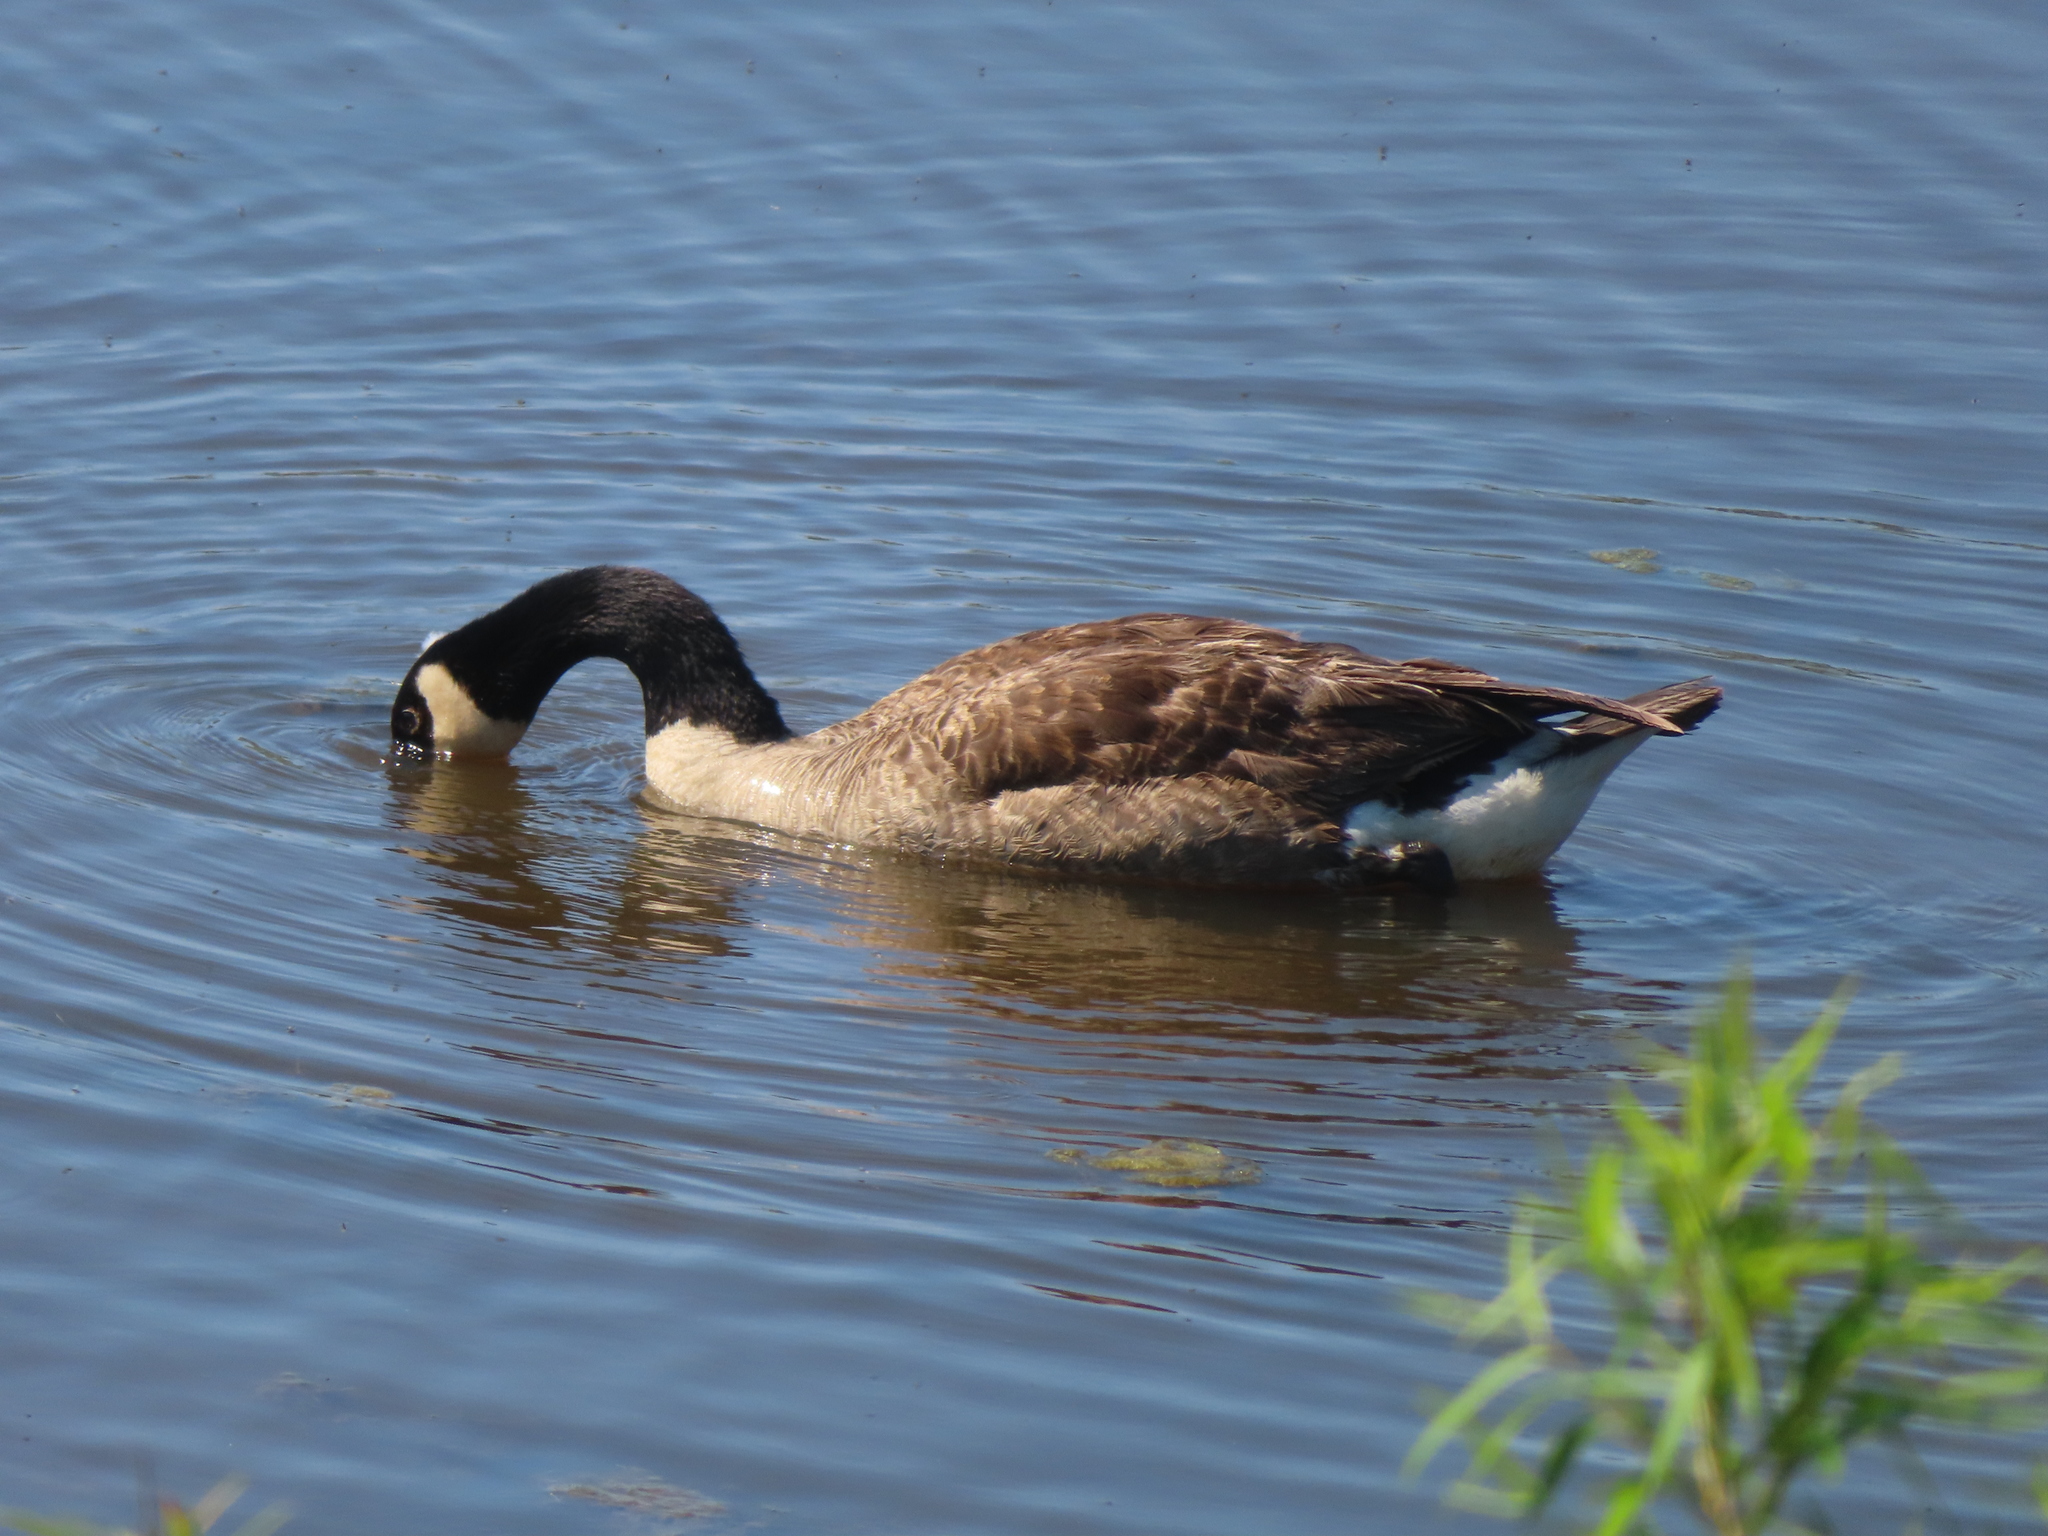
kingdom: Animalia
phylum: Chordata
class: Aves
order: Anseriformes
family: Anatidae
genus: Branta
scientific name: Branta canadensis
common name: Canada goose
